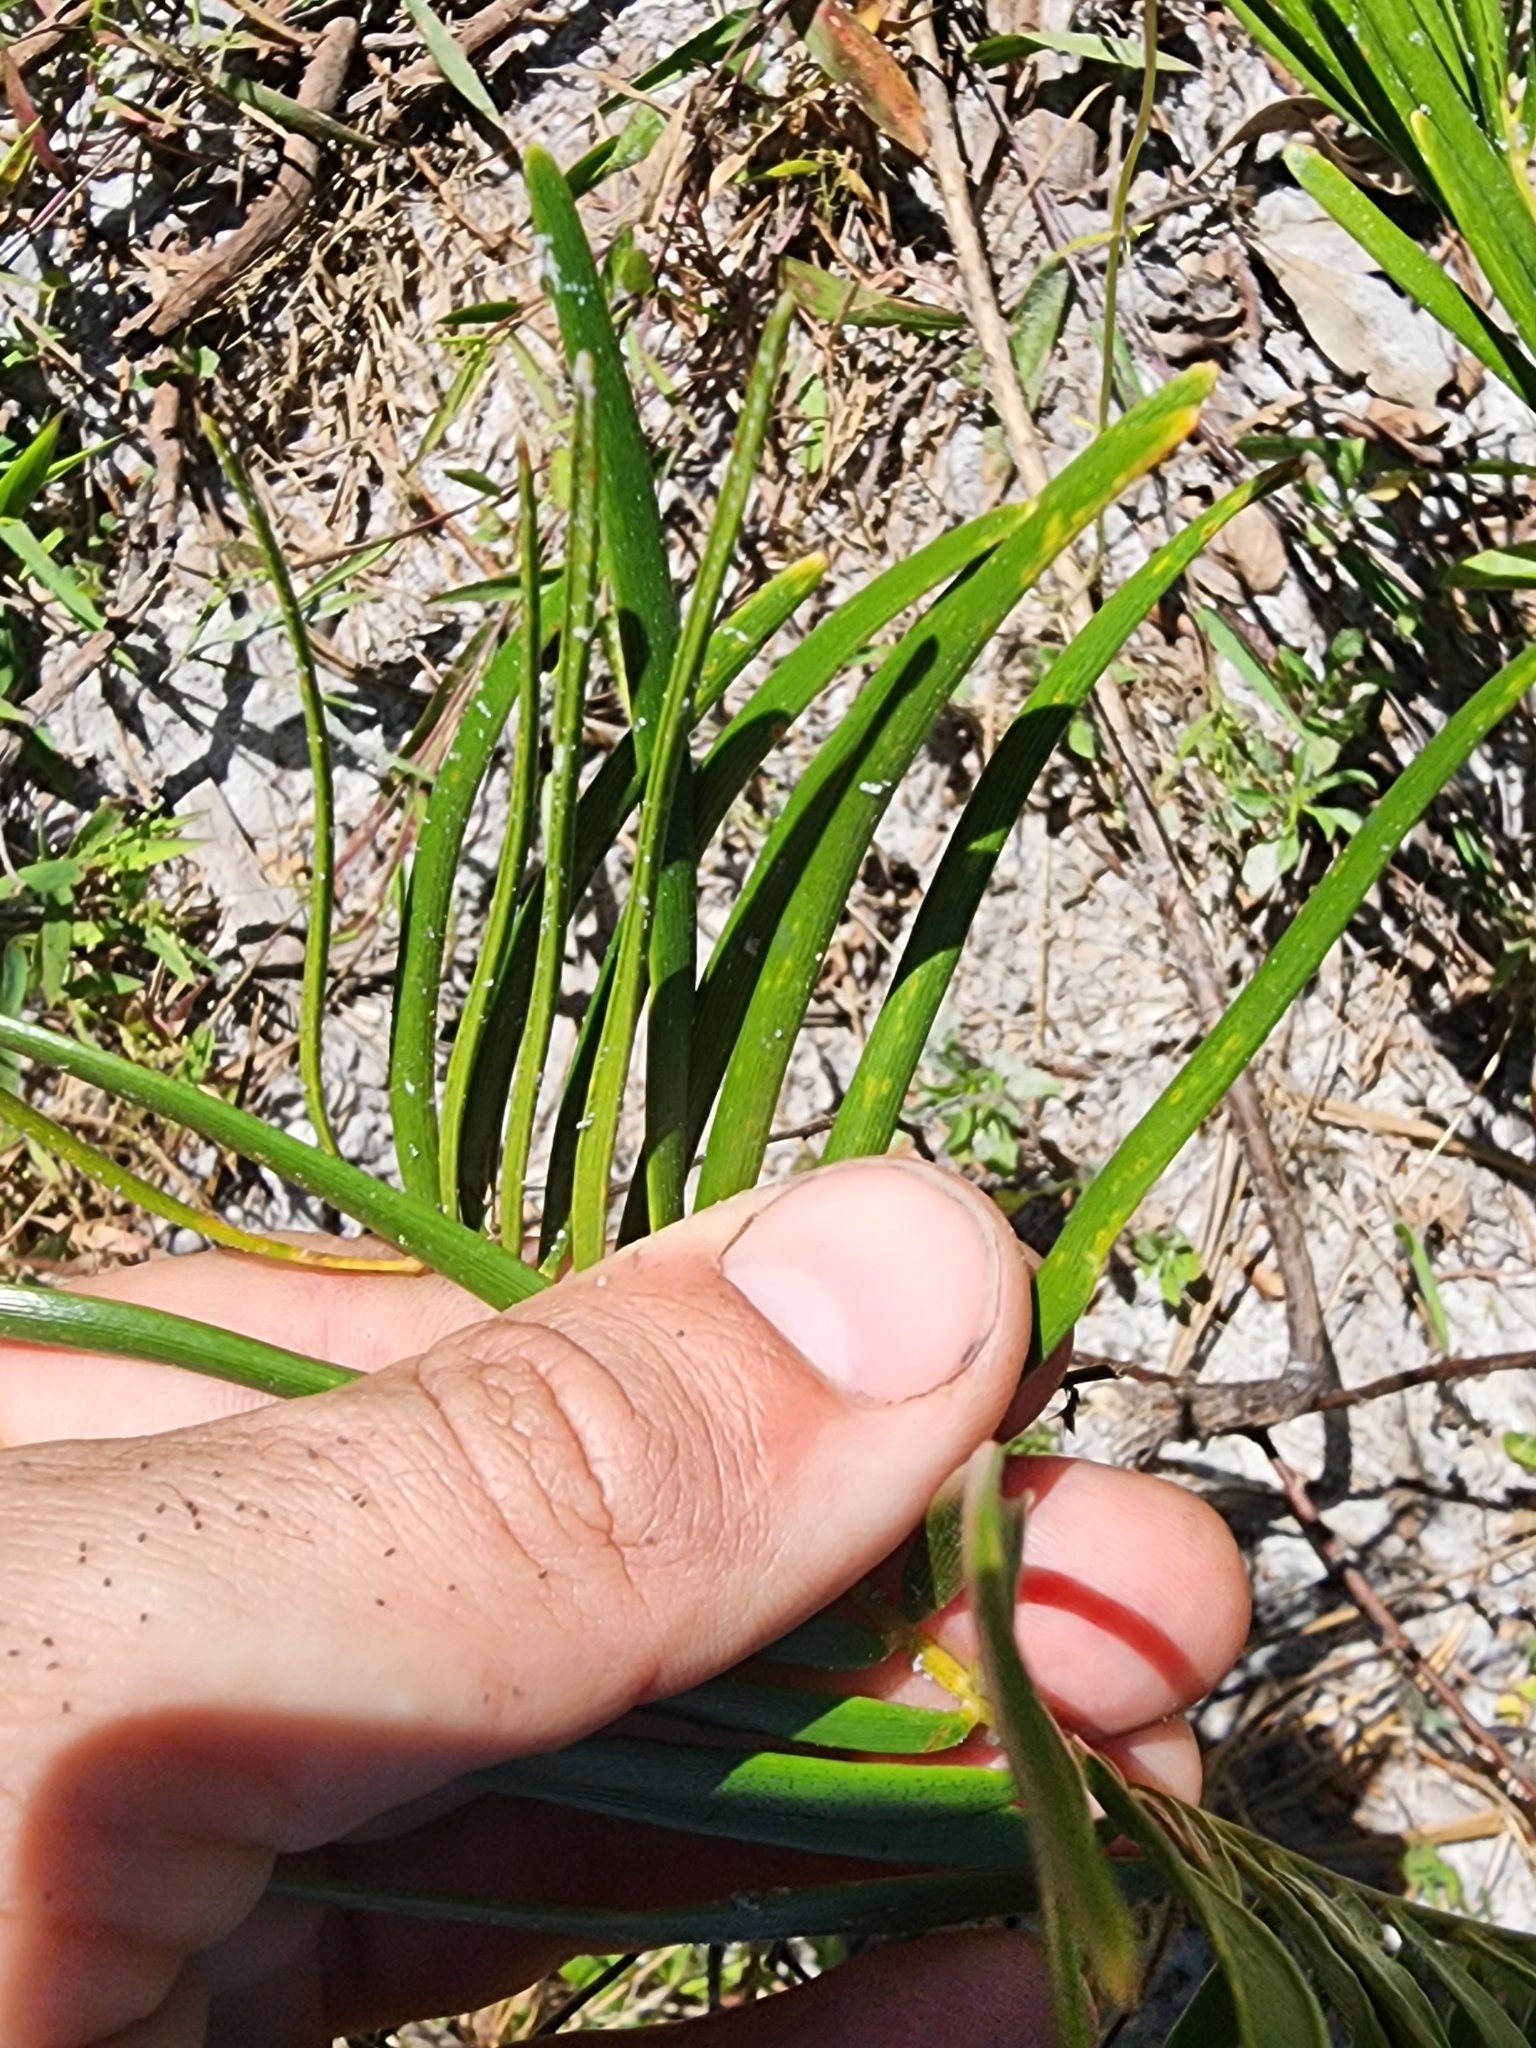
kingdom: Plantae
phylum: Tracheophyta
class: Cycadopsida
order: Cycadales
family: Zamiaceae
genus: Zamia
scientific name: Zamia integrifolia
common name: Florida arrowroot
